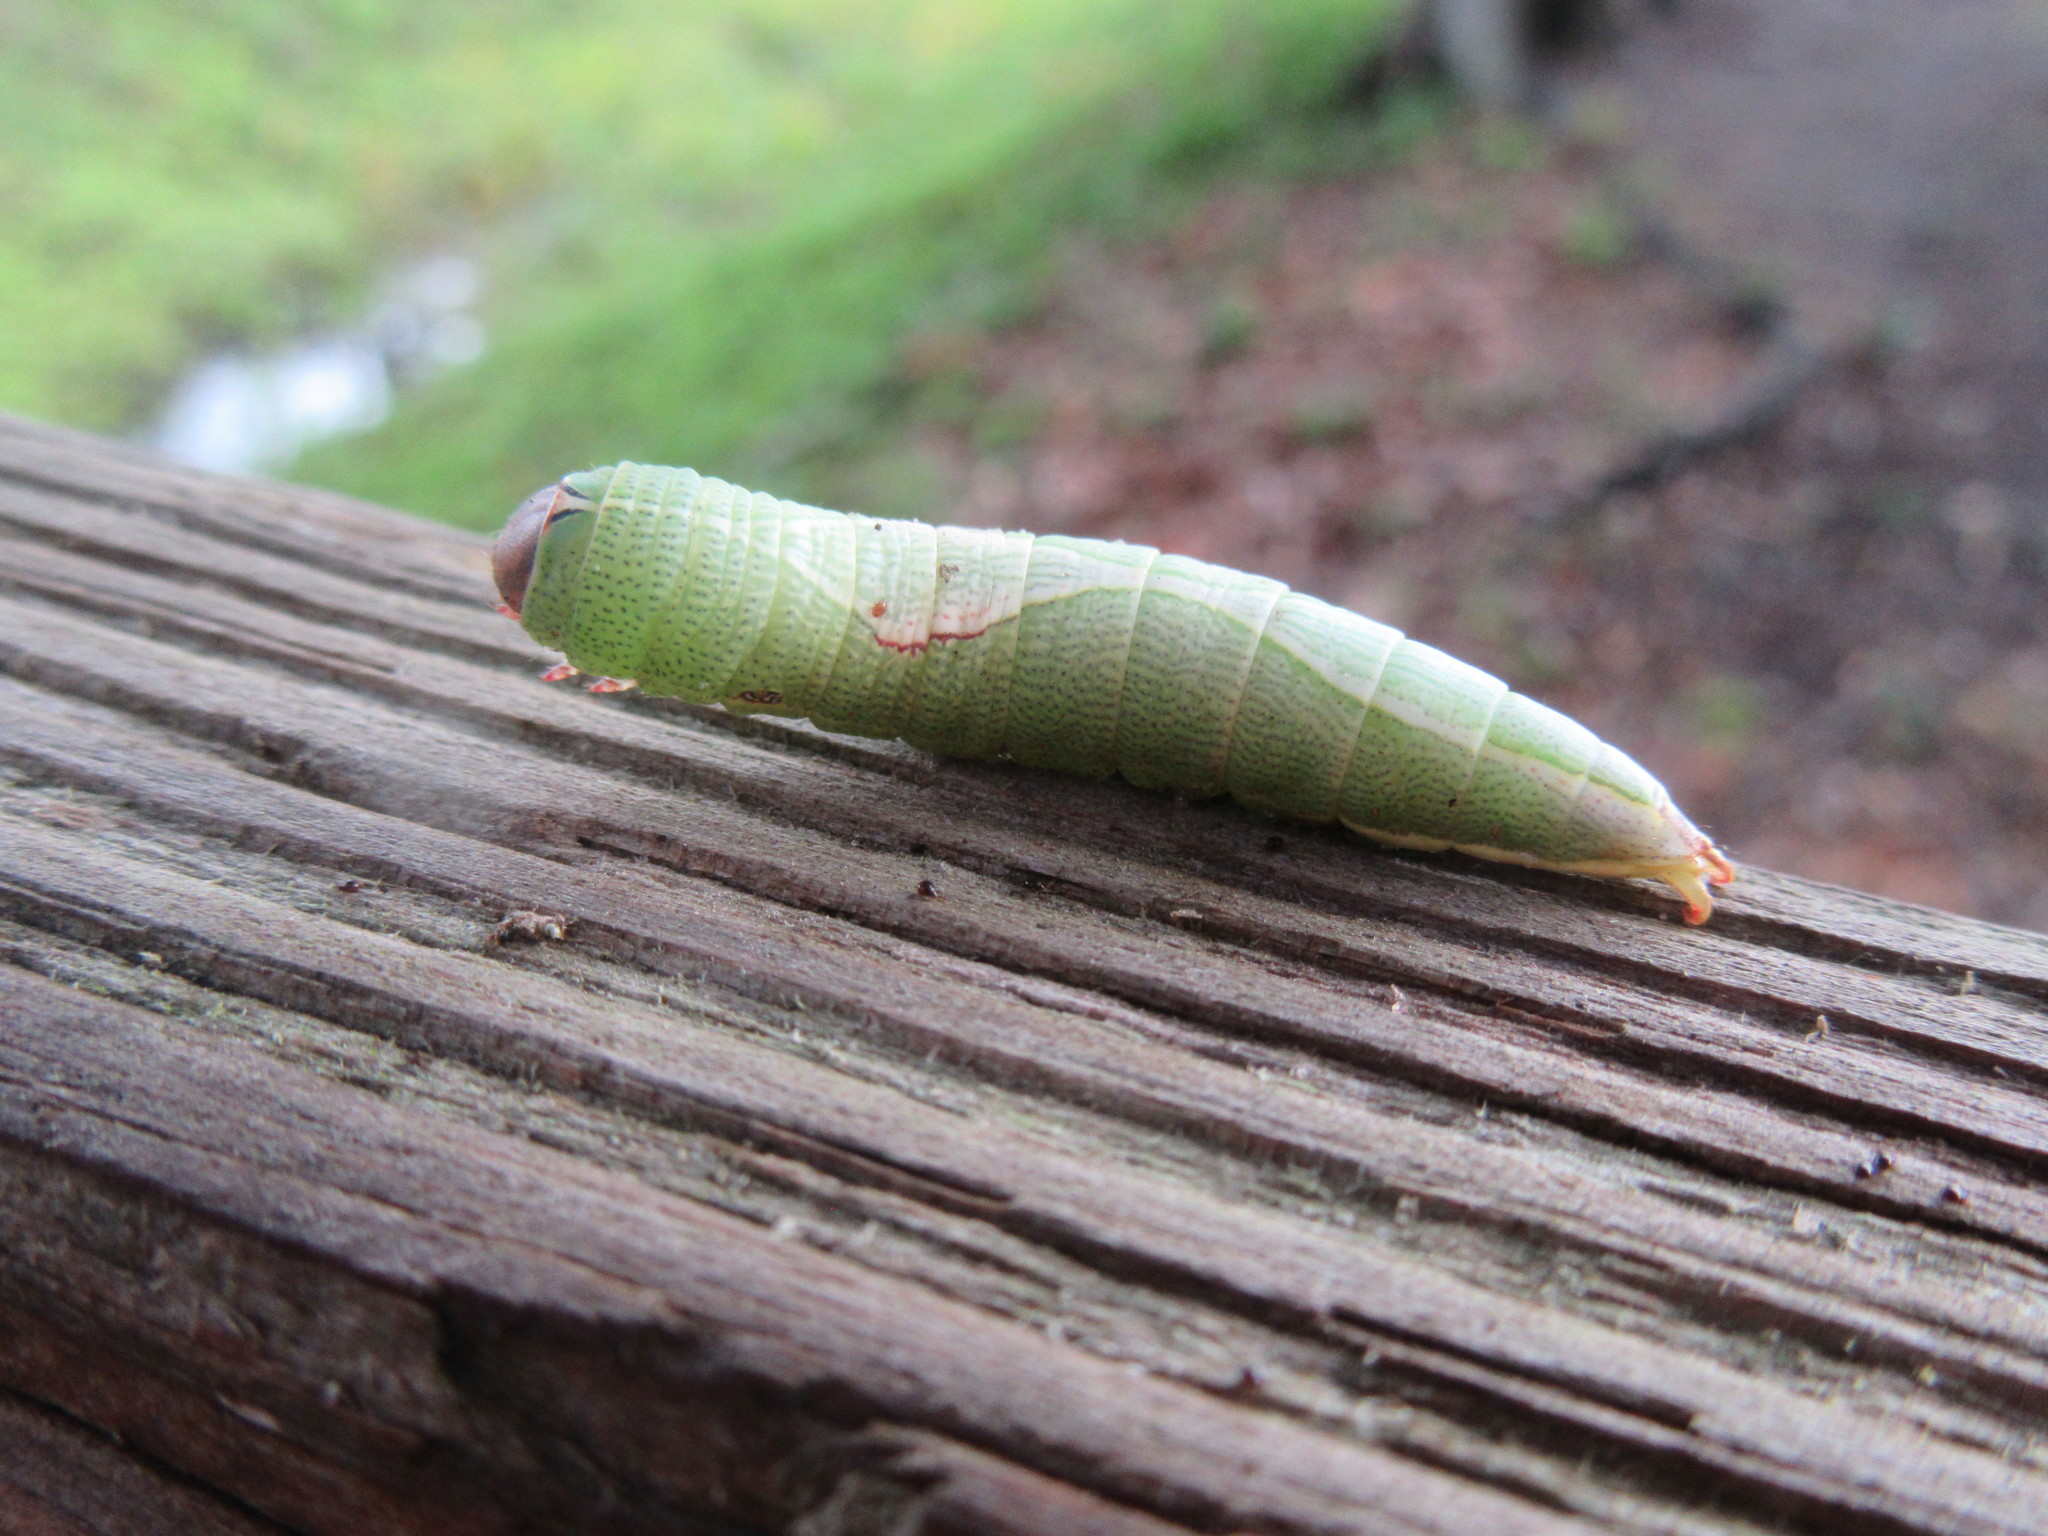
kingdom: Animalia
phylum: Arthropoda
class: Insecta
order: Lepidoptera
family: Notodontidae
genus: Heterocampa
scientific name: Heterocampa obliqua
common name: Oblique heterocampa
